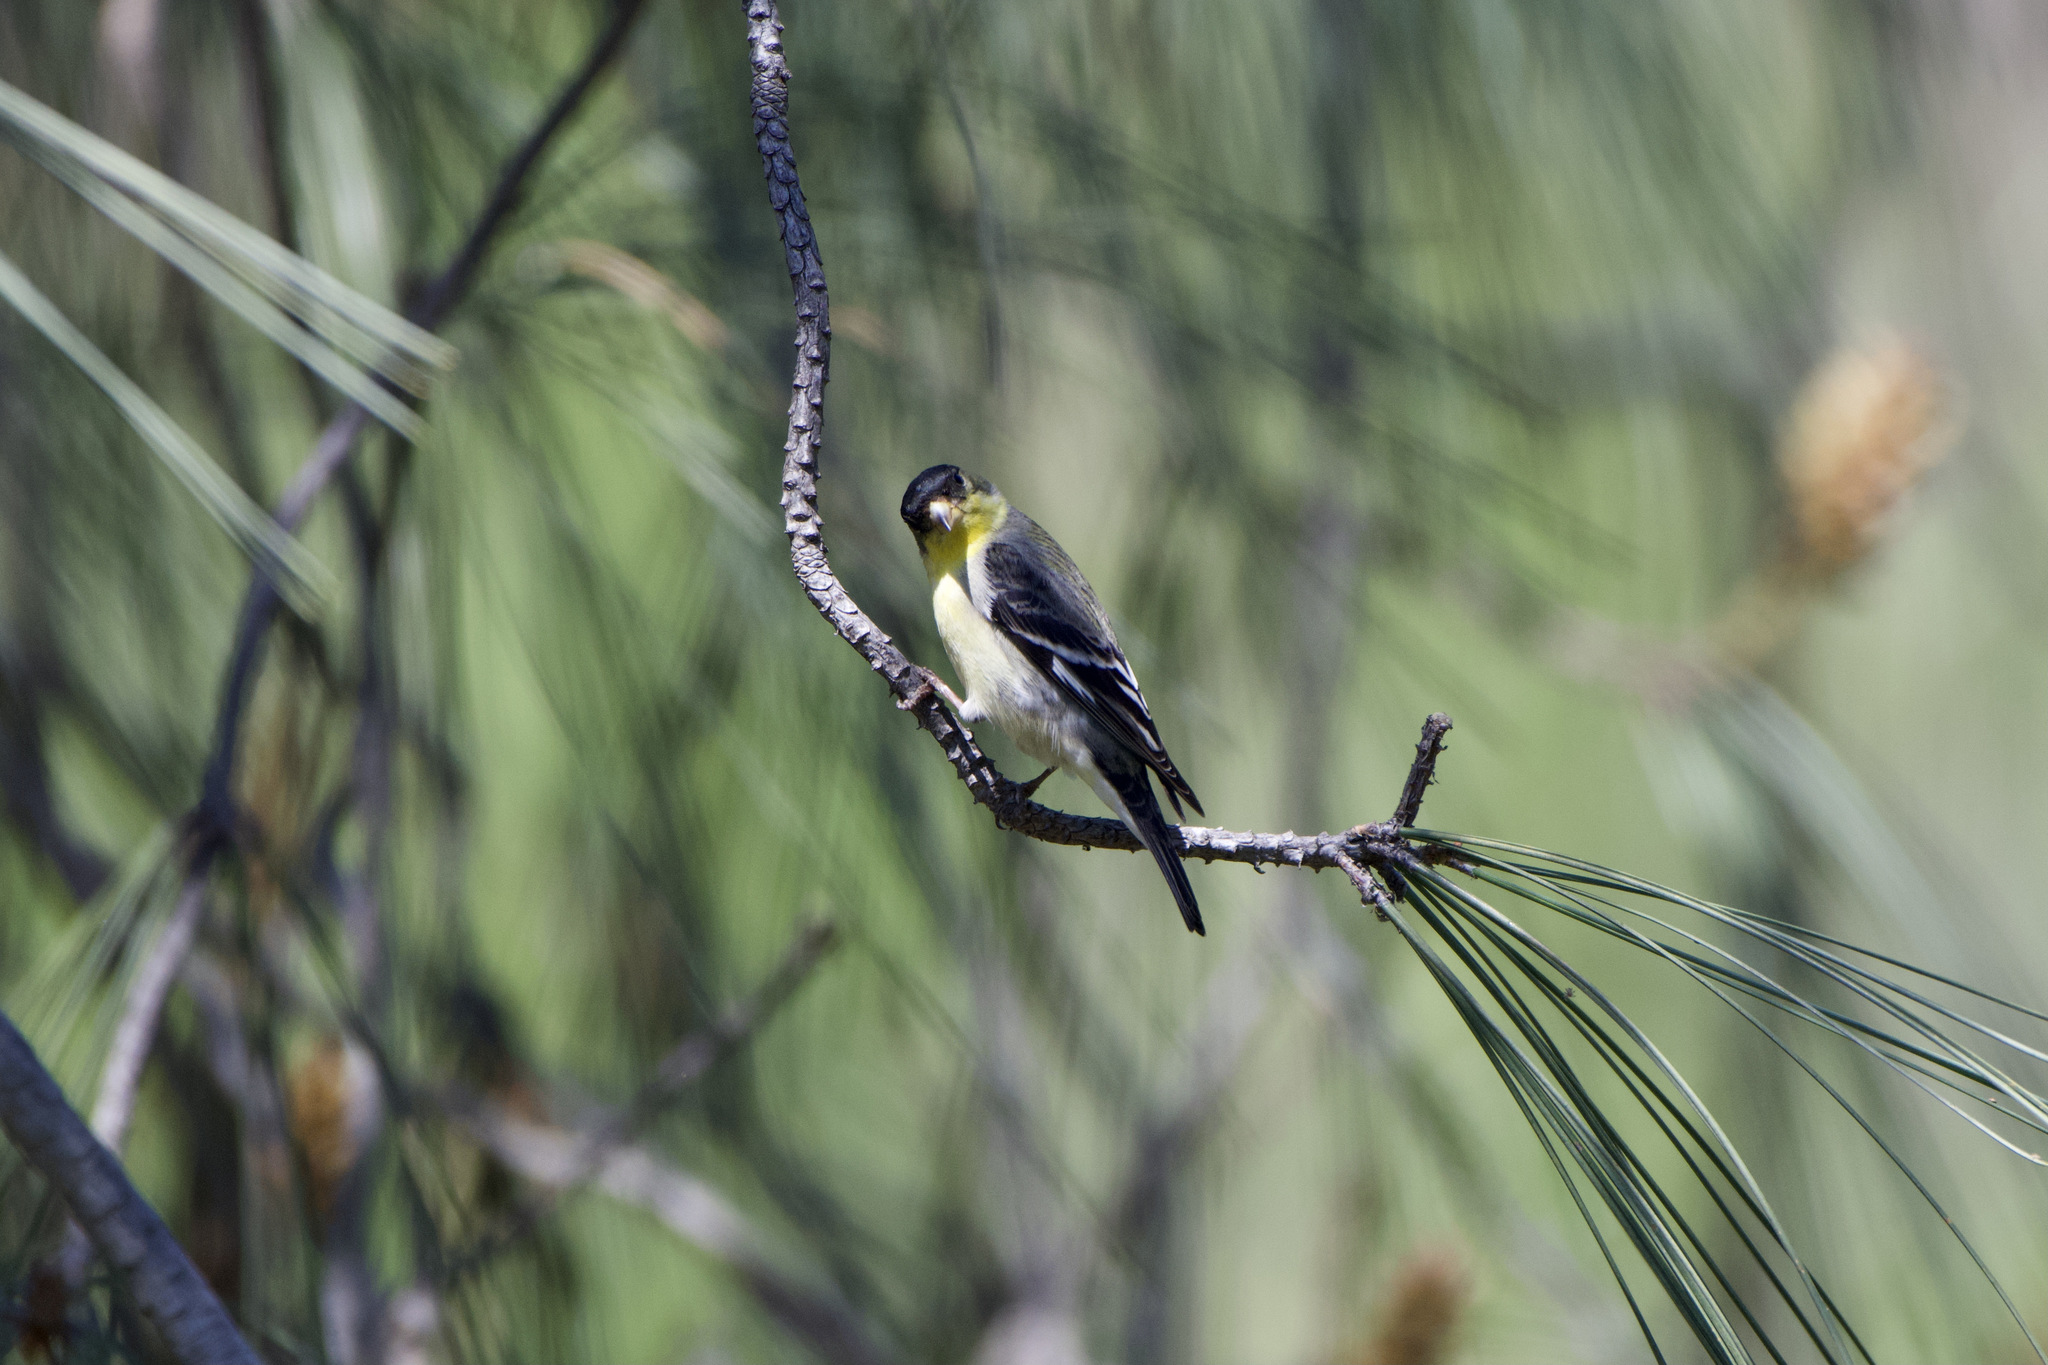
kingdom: Animalia
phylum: Chordata
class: Aves
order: Passeriformes
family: Fringillidae
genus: Spinus
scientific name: Spinus psaltria
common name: Lesser goldfinch
